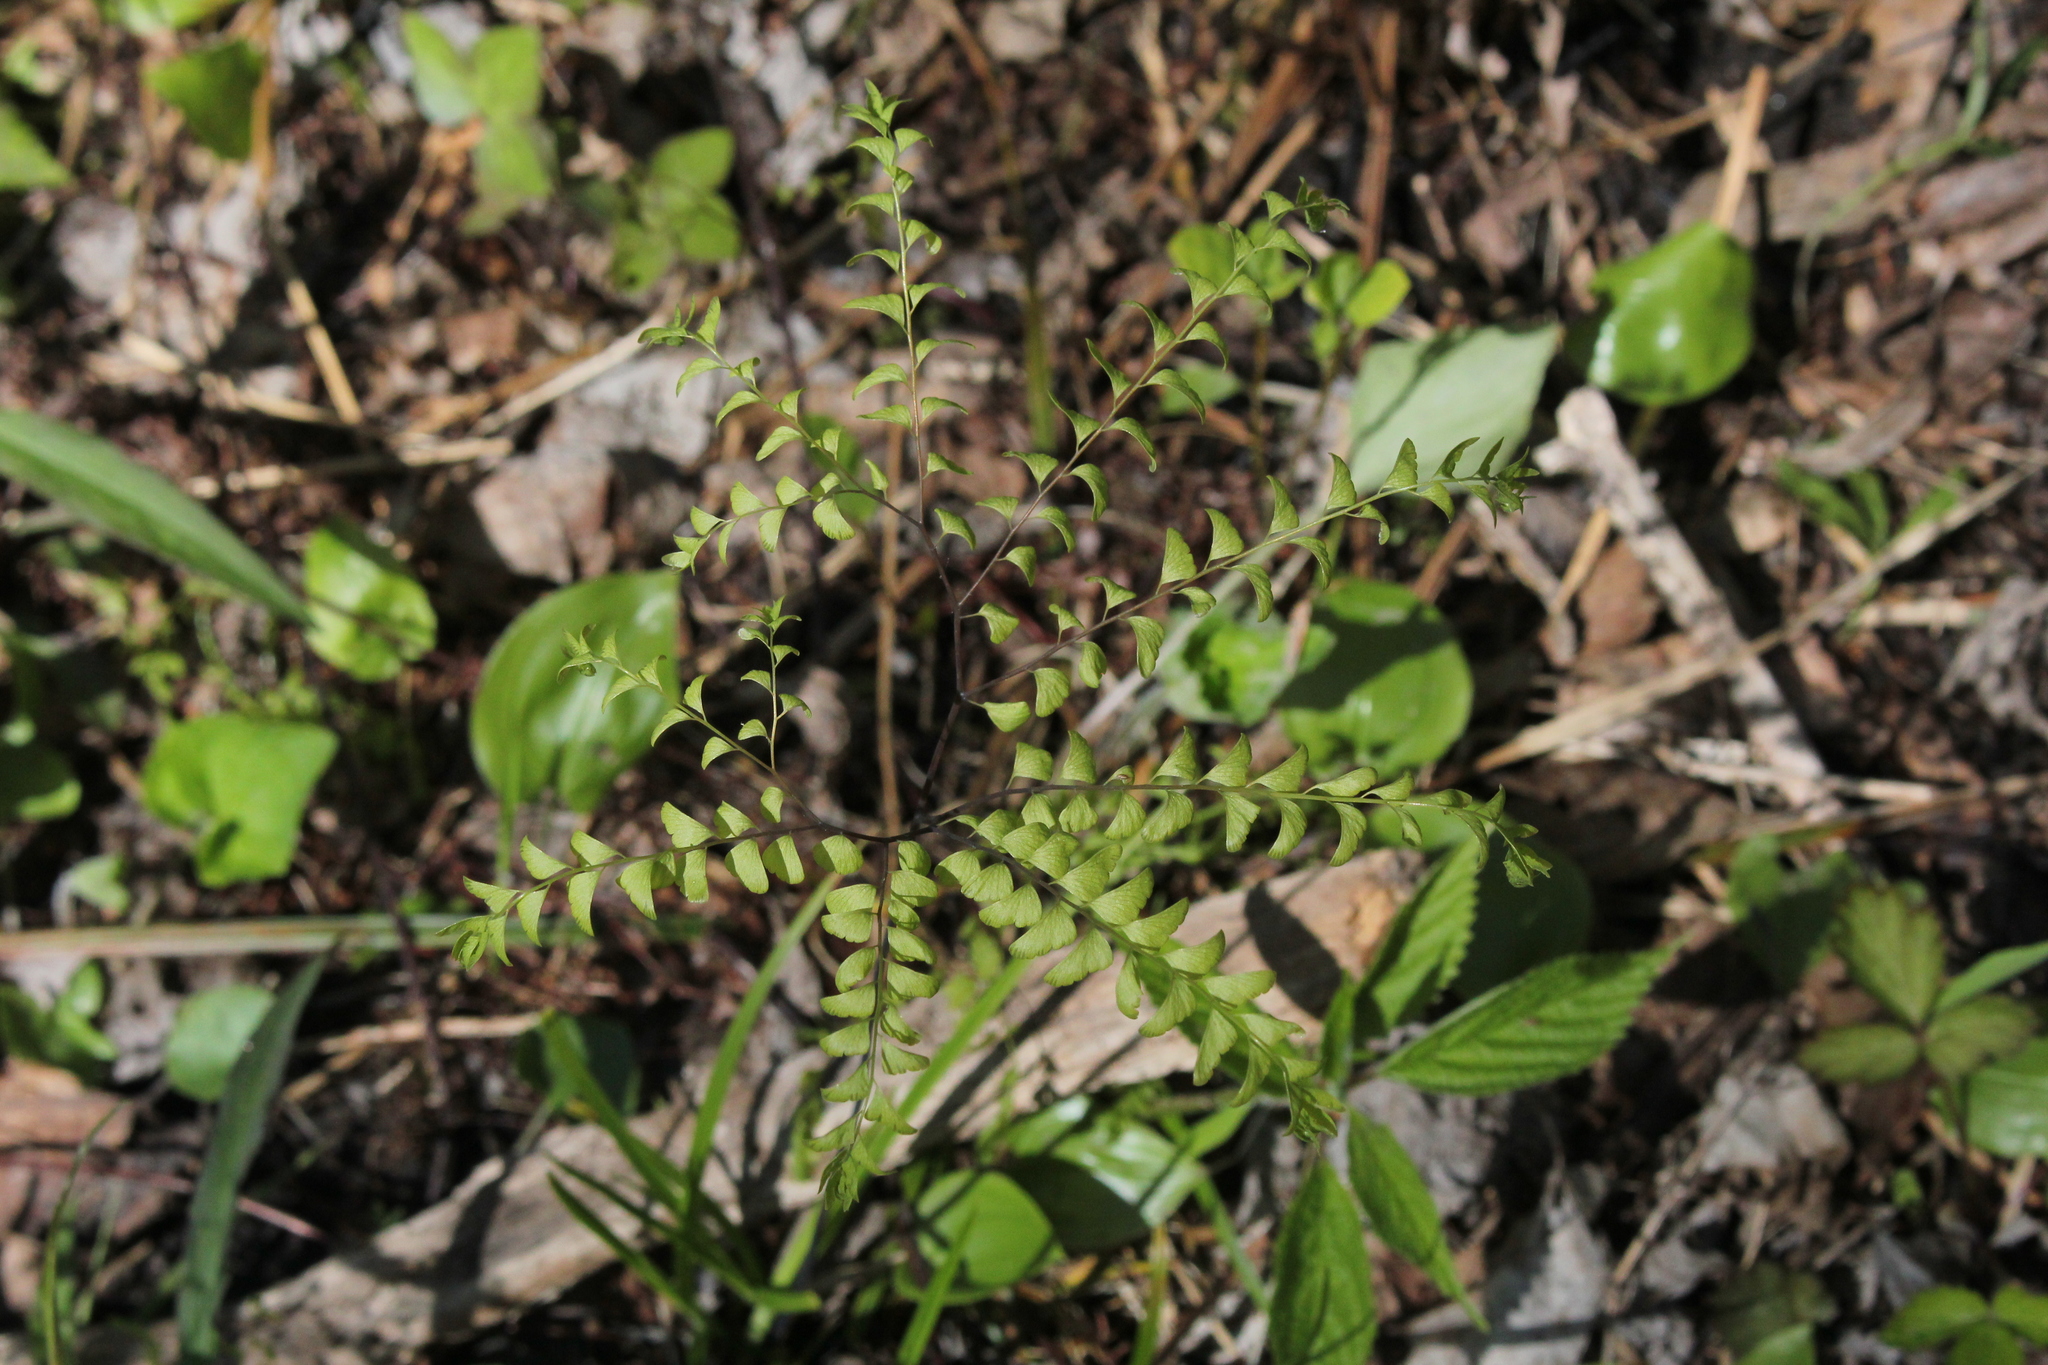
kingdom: Plantae
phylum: Tracheophyta
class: Polypodiopsida
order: Polypodiales
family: Pteridaceae
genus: Adiantum
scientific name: Adiantum pedatum
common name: Five-finger fern
